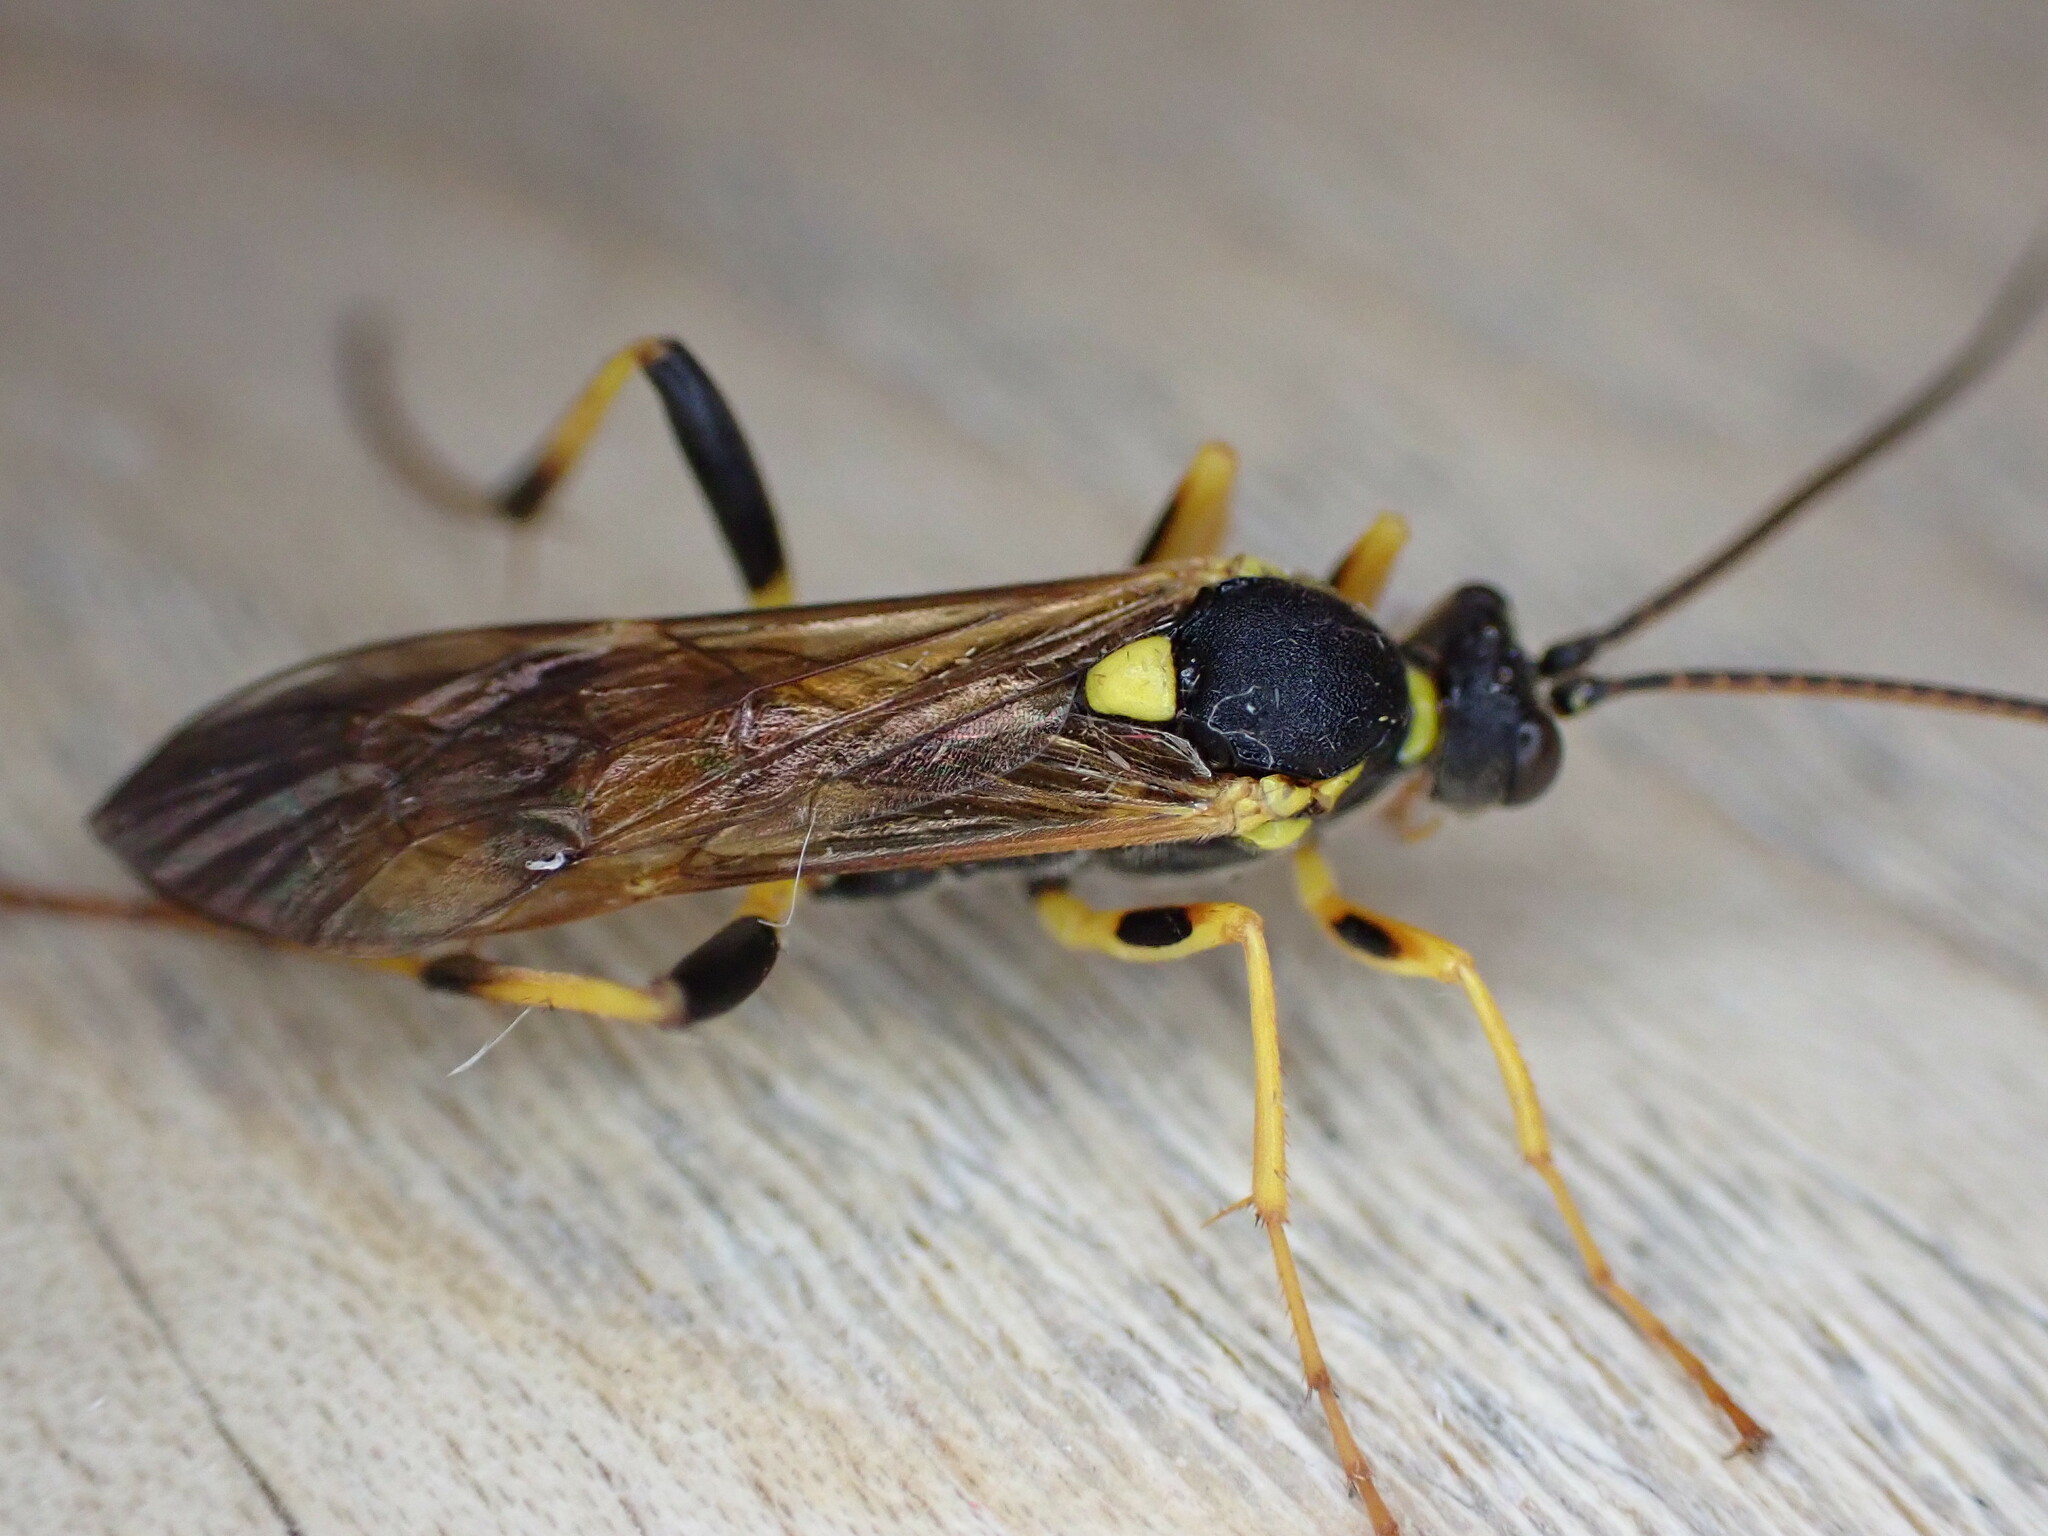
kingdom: Animalia
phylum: Arthropoda
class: Insecta
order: Hymenoptera
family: Ichneumonidae
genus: Amblyteles
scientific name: Amblyteles armatorius
